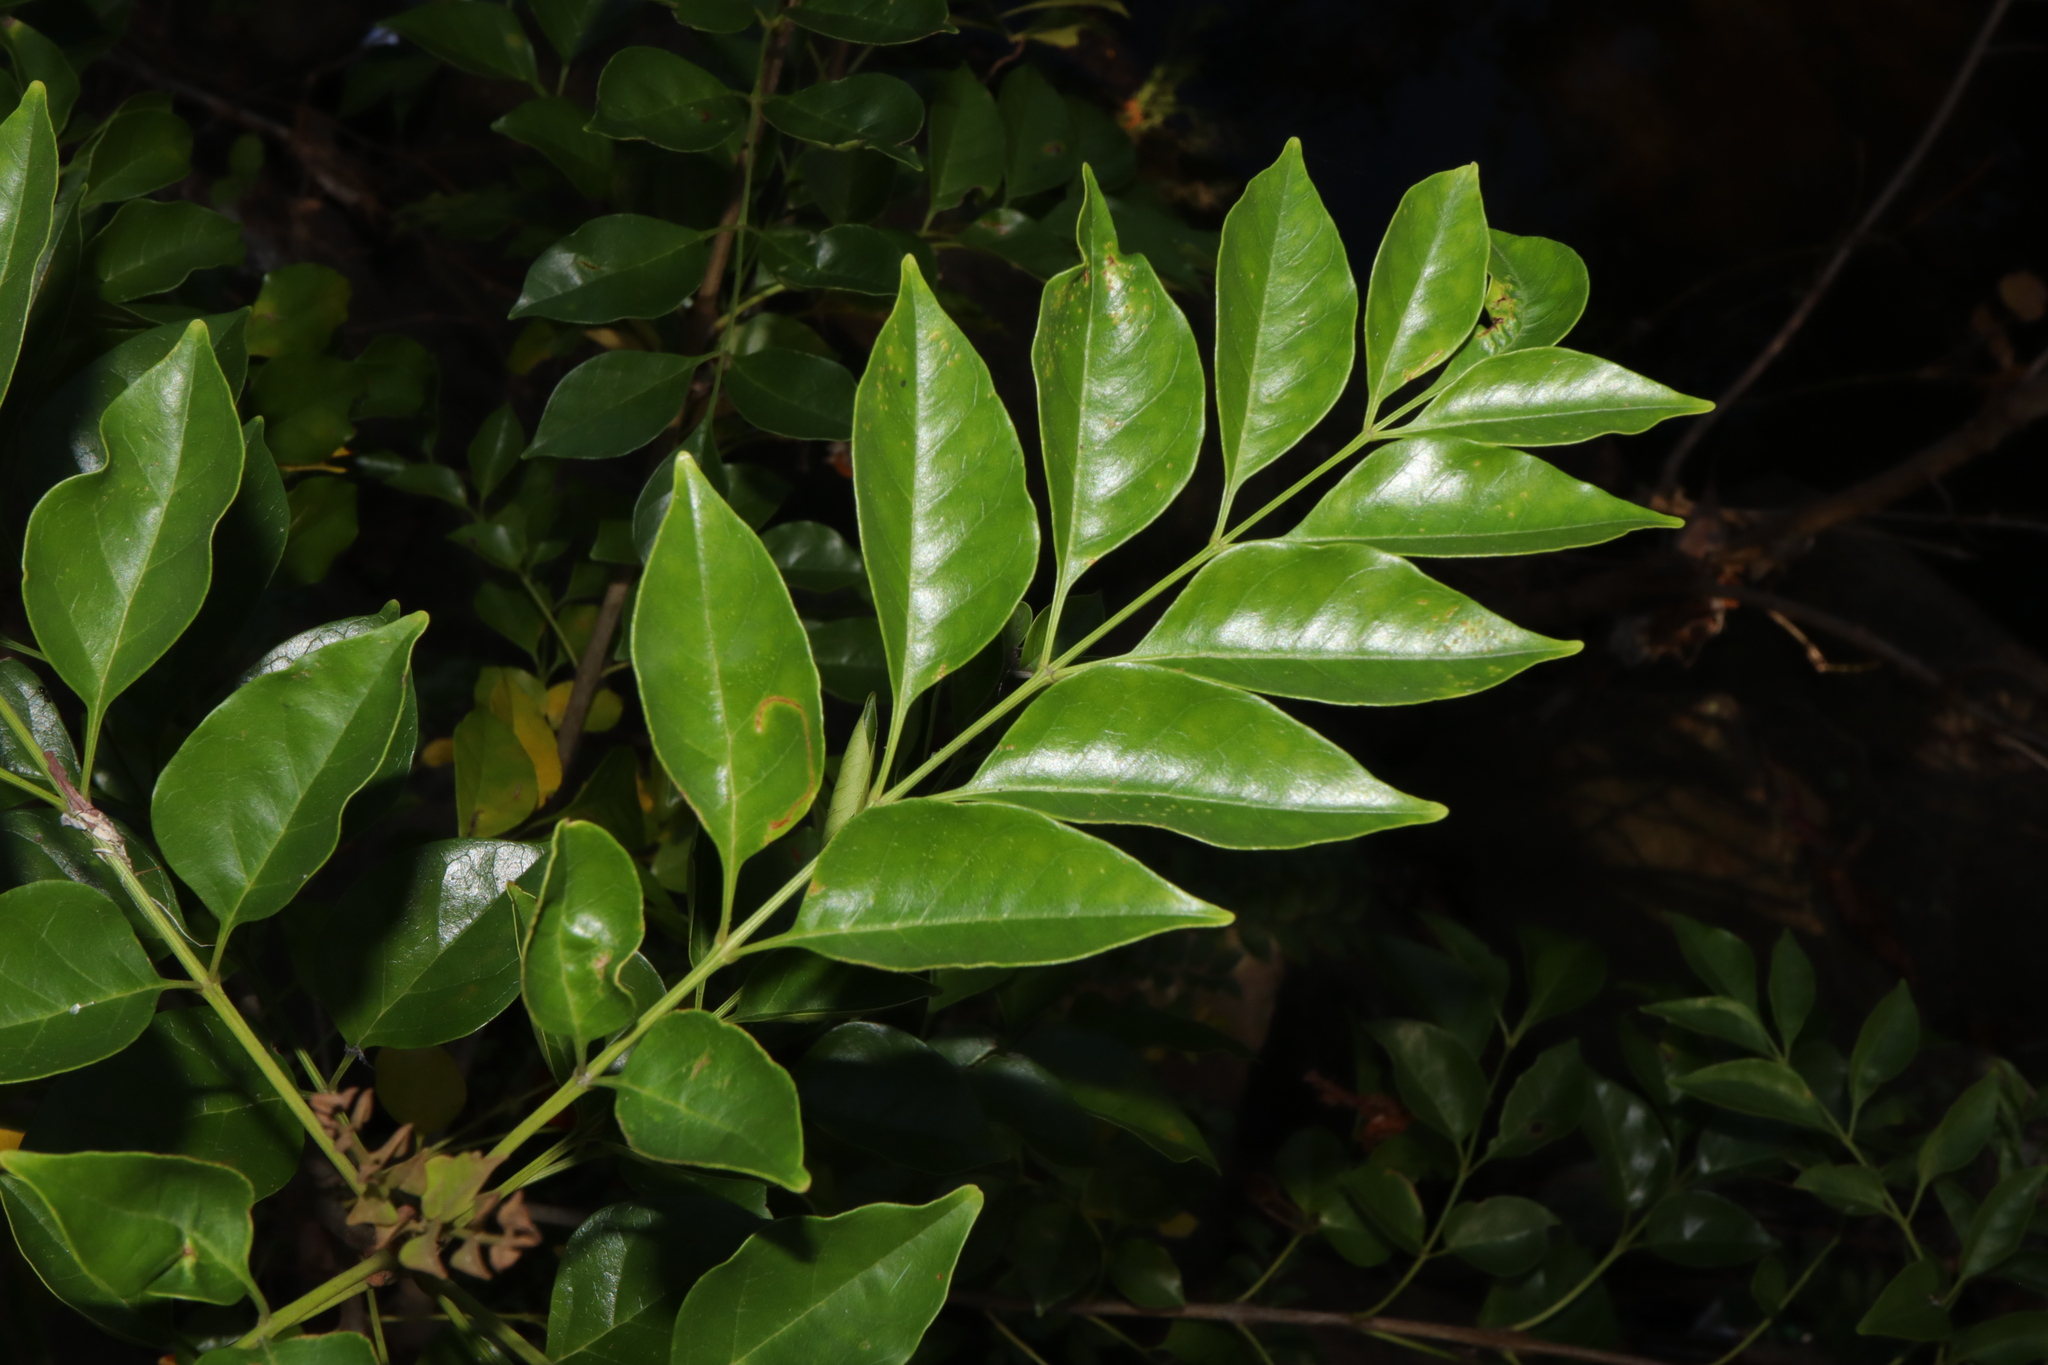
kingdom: Plantae
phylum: Tracheophyta
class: Magnoliopsida
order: Lamiales
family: Oleaceae
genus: Fraxinus
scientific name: Fraxinus griffithii
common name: Himalayan ash
